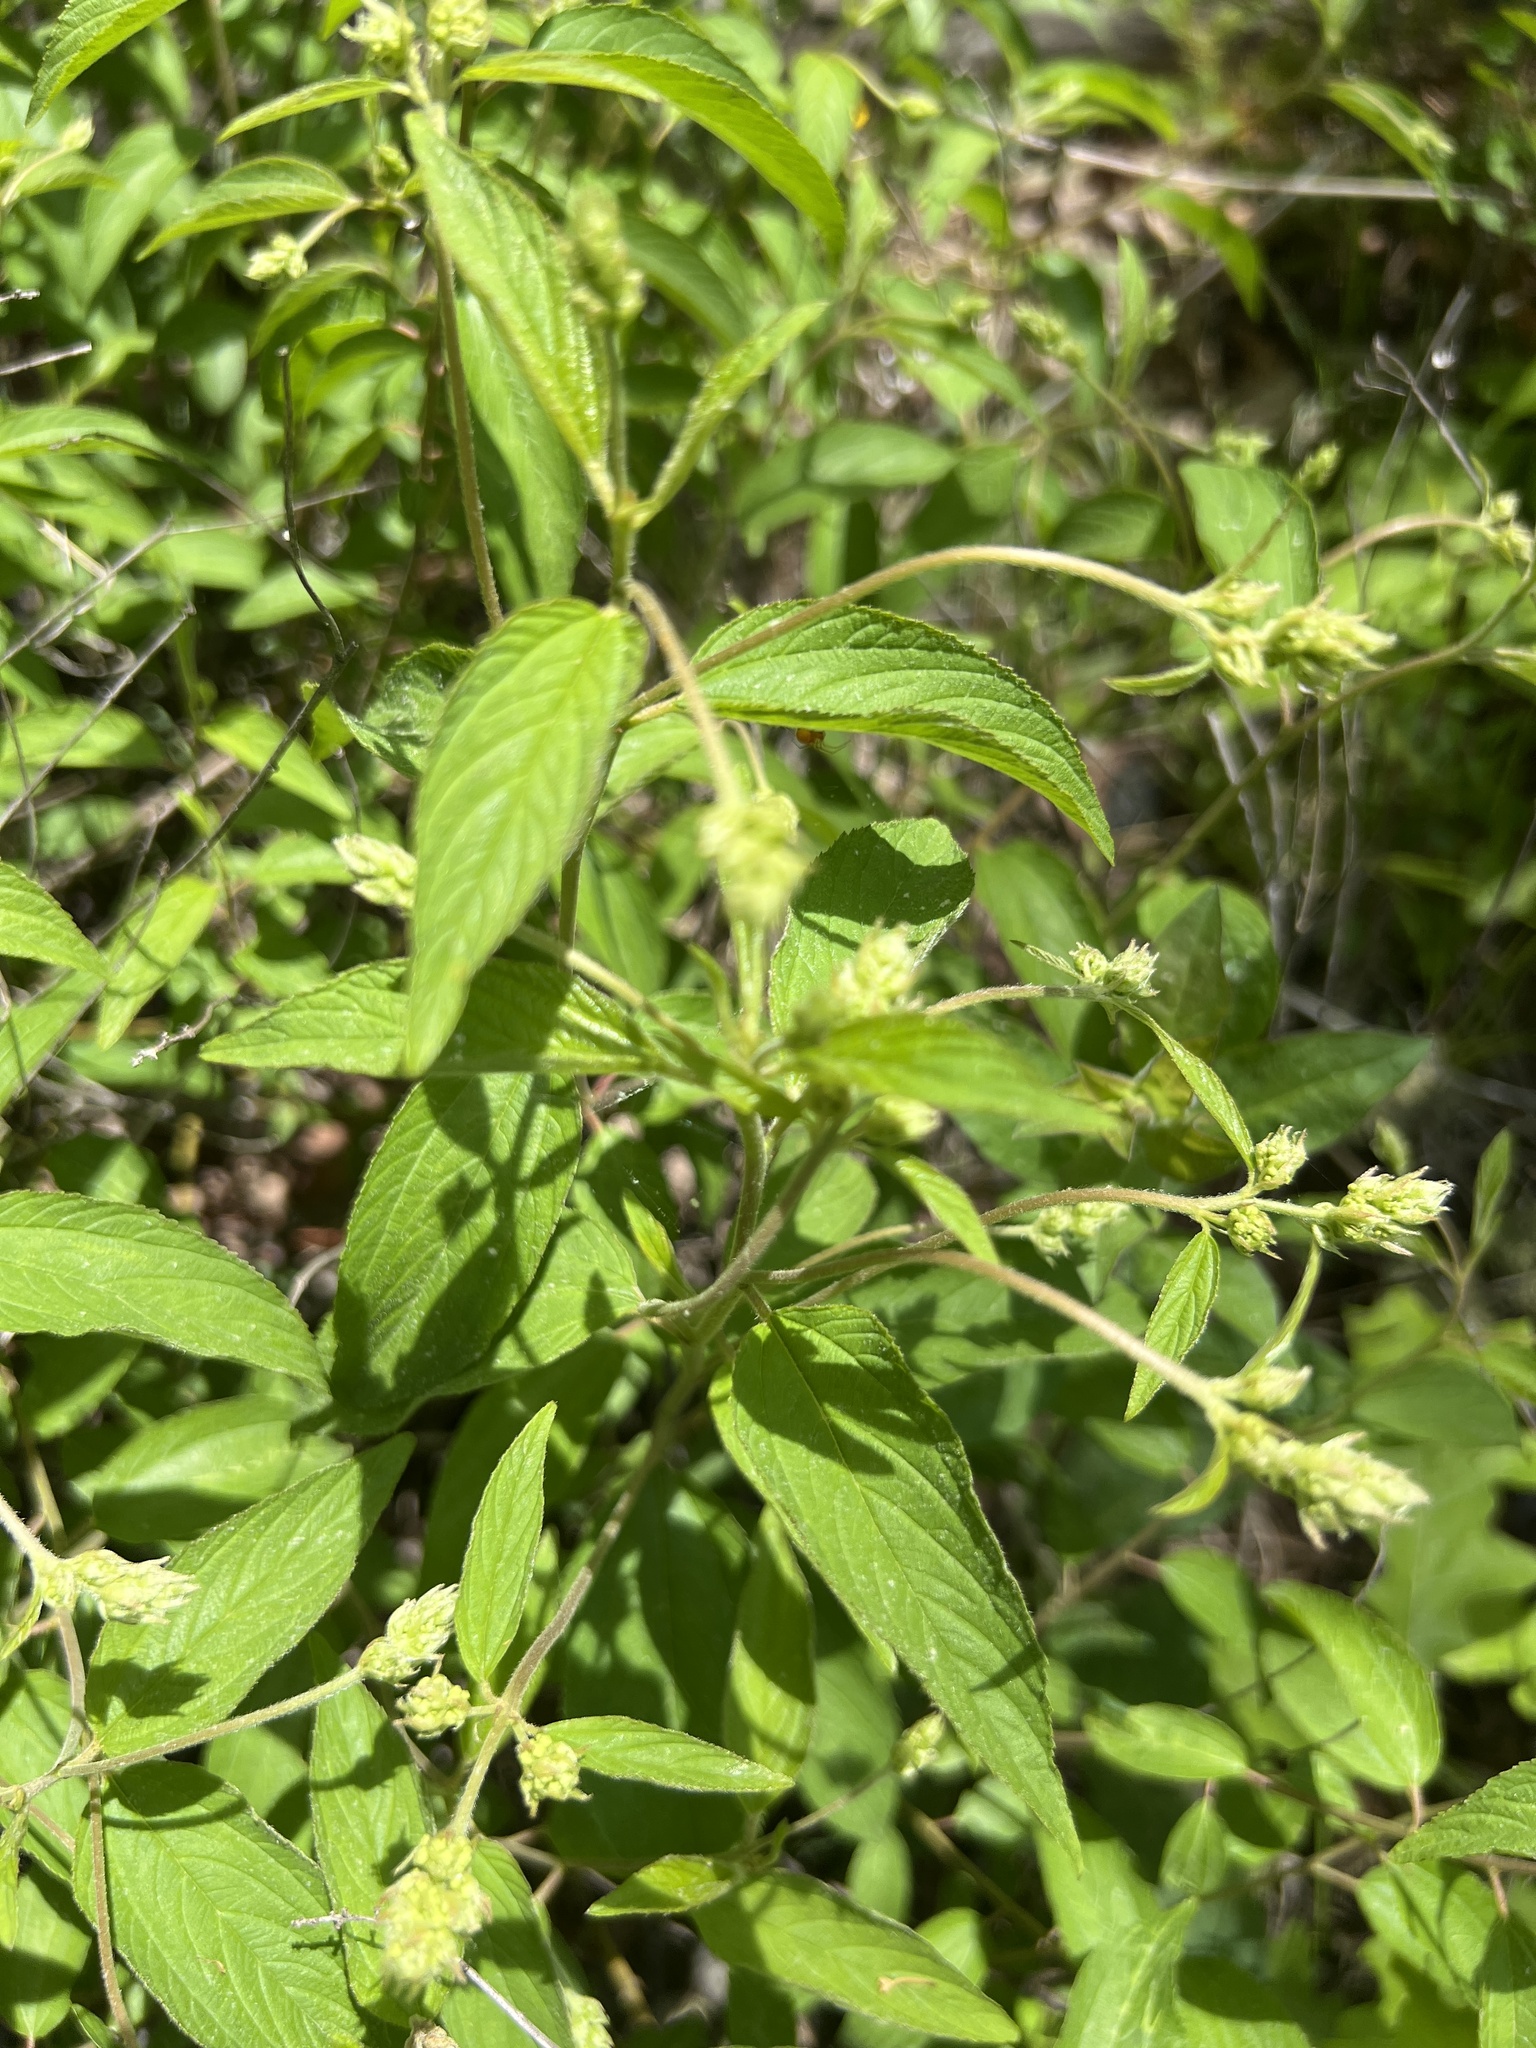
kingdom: Plantae
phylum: Tracheophyta
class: Magnoliopsida
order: Rosales
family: Rhamnaceae
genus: Ceanothus
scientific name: Ceanothus americanus
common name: Redroot
